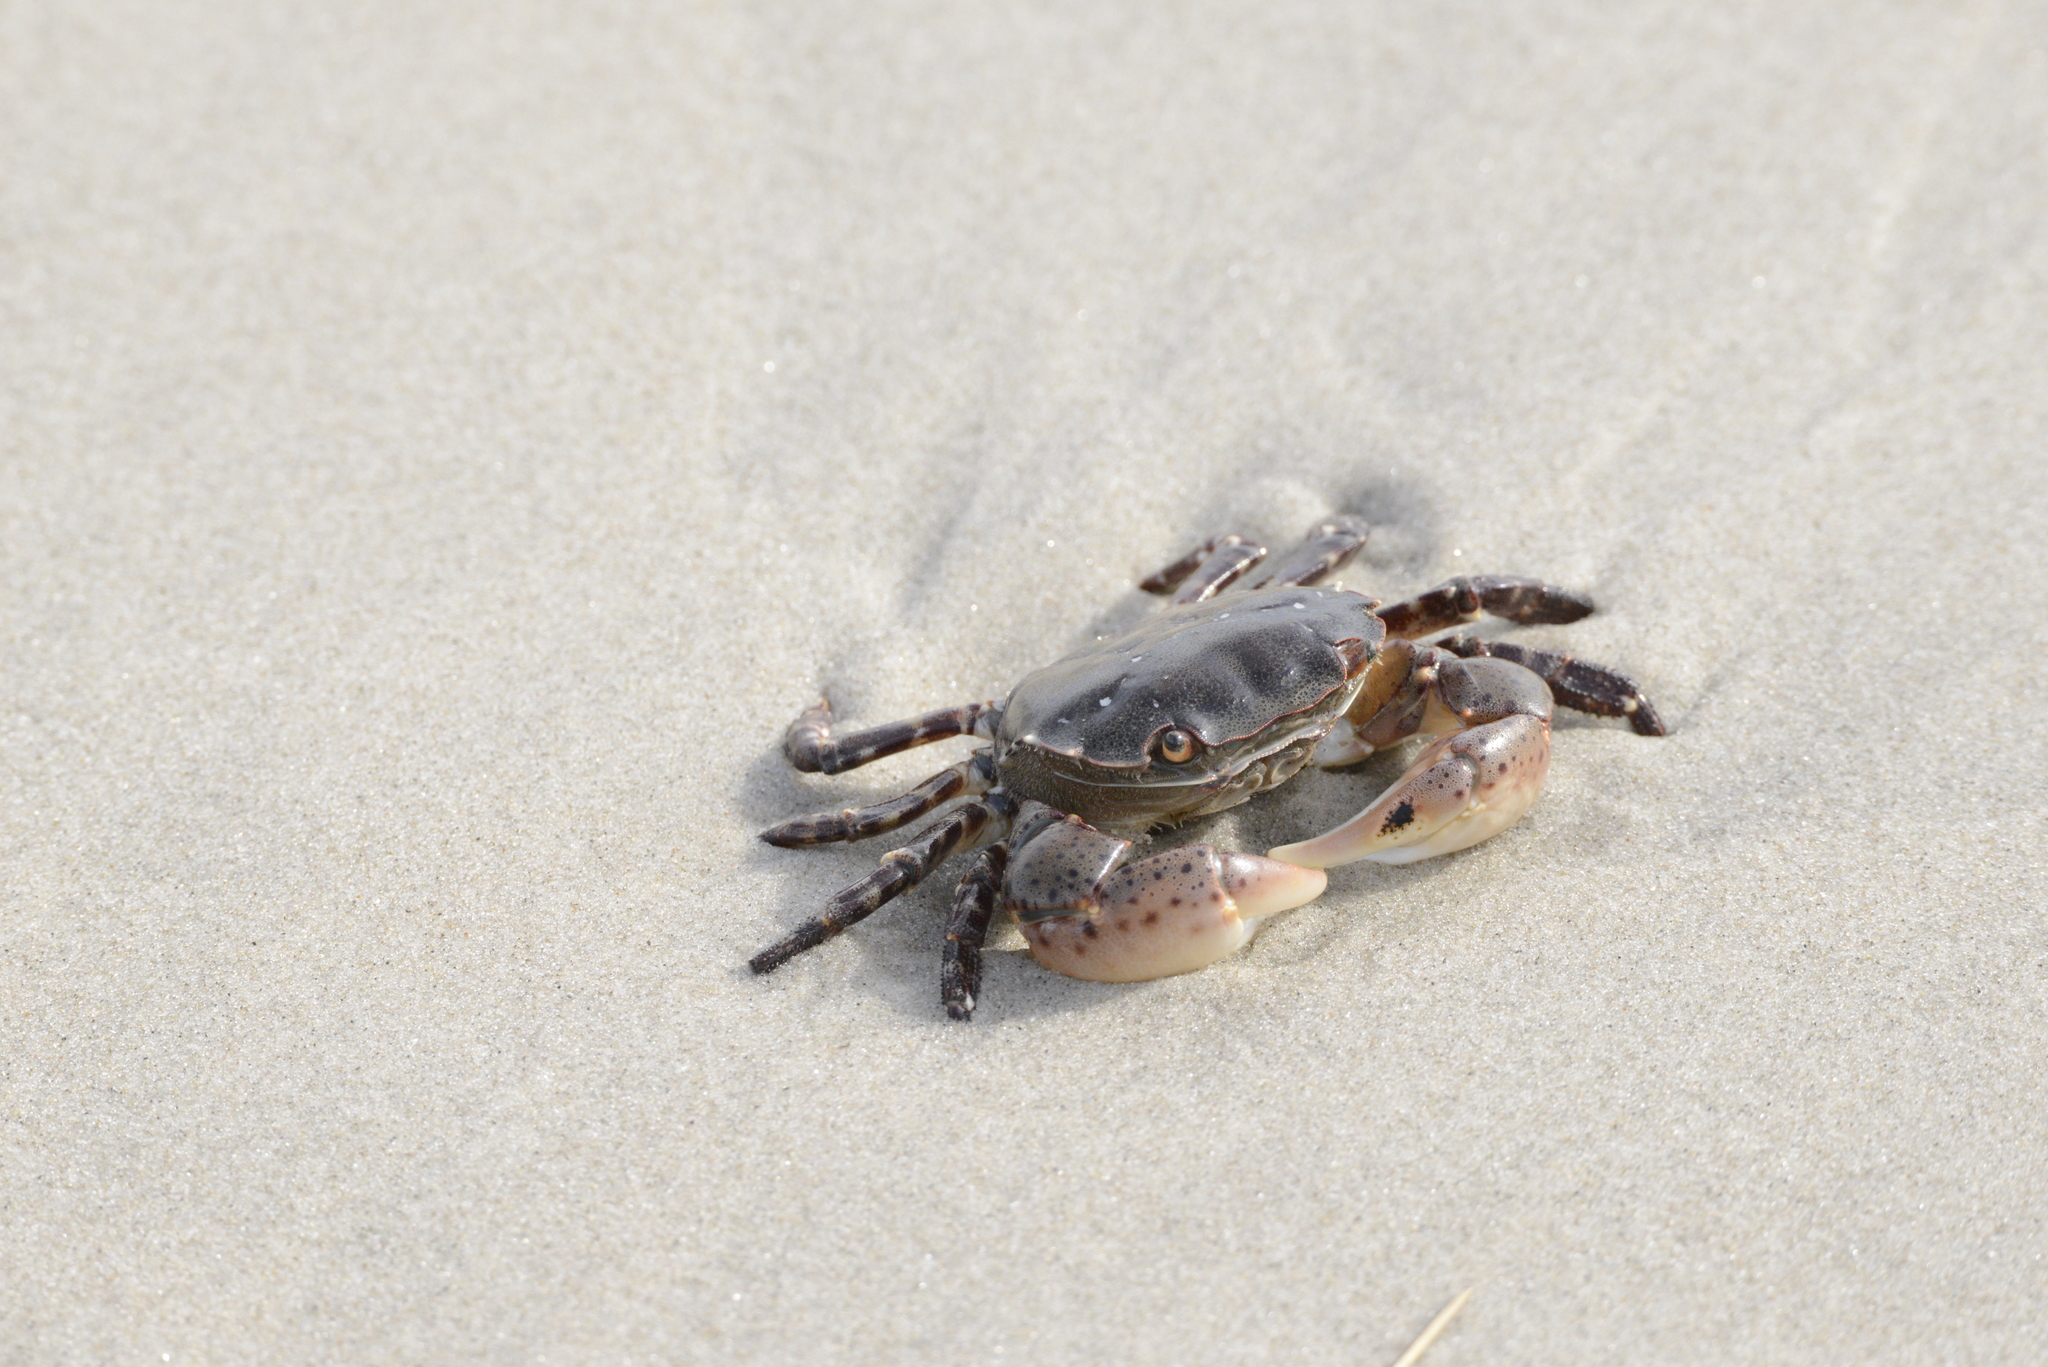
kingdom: Animalia
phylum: Arthropoda
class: Malacostraca
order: Decapoda
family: Varunidae
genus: Hemigrapsus
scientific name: Hemigrapsus sanguineus
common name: Asian shore crab
